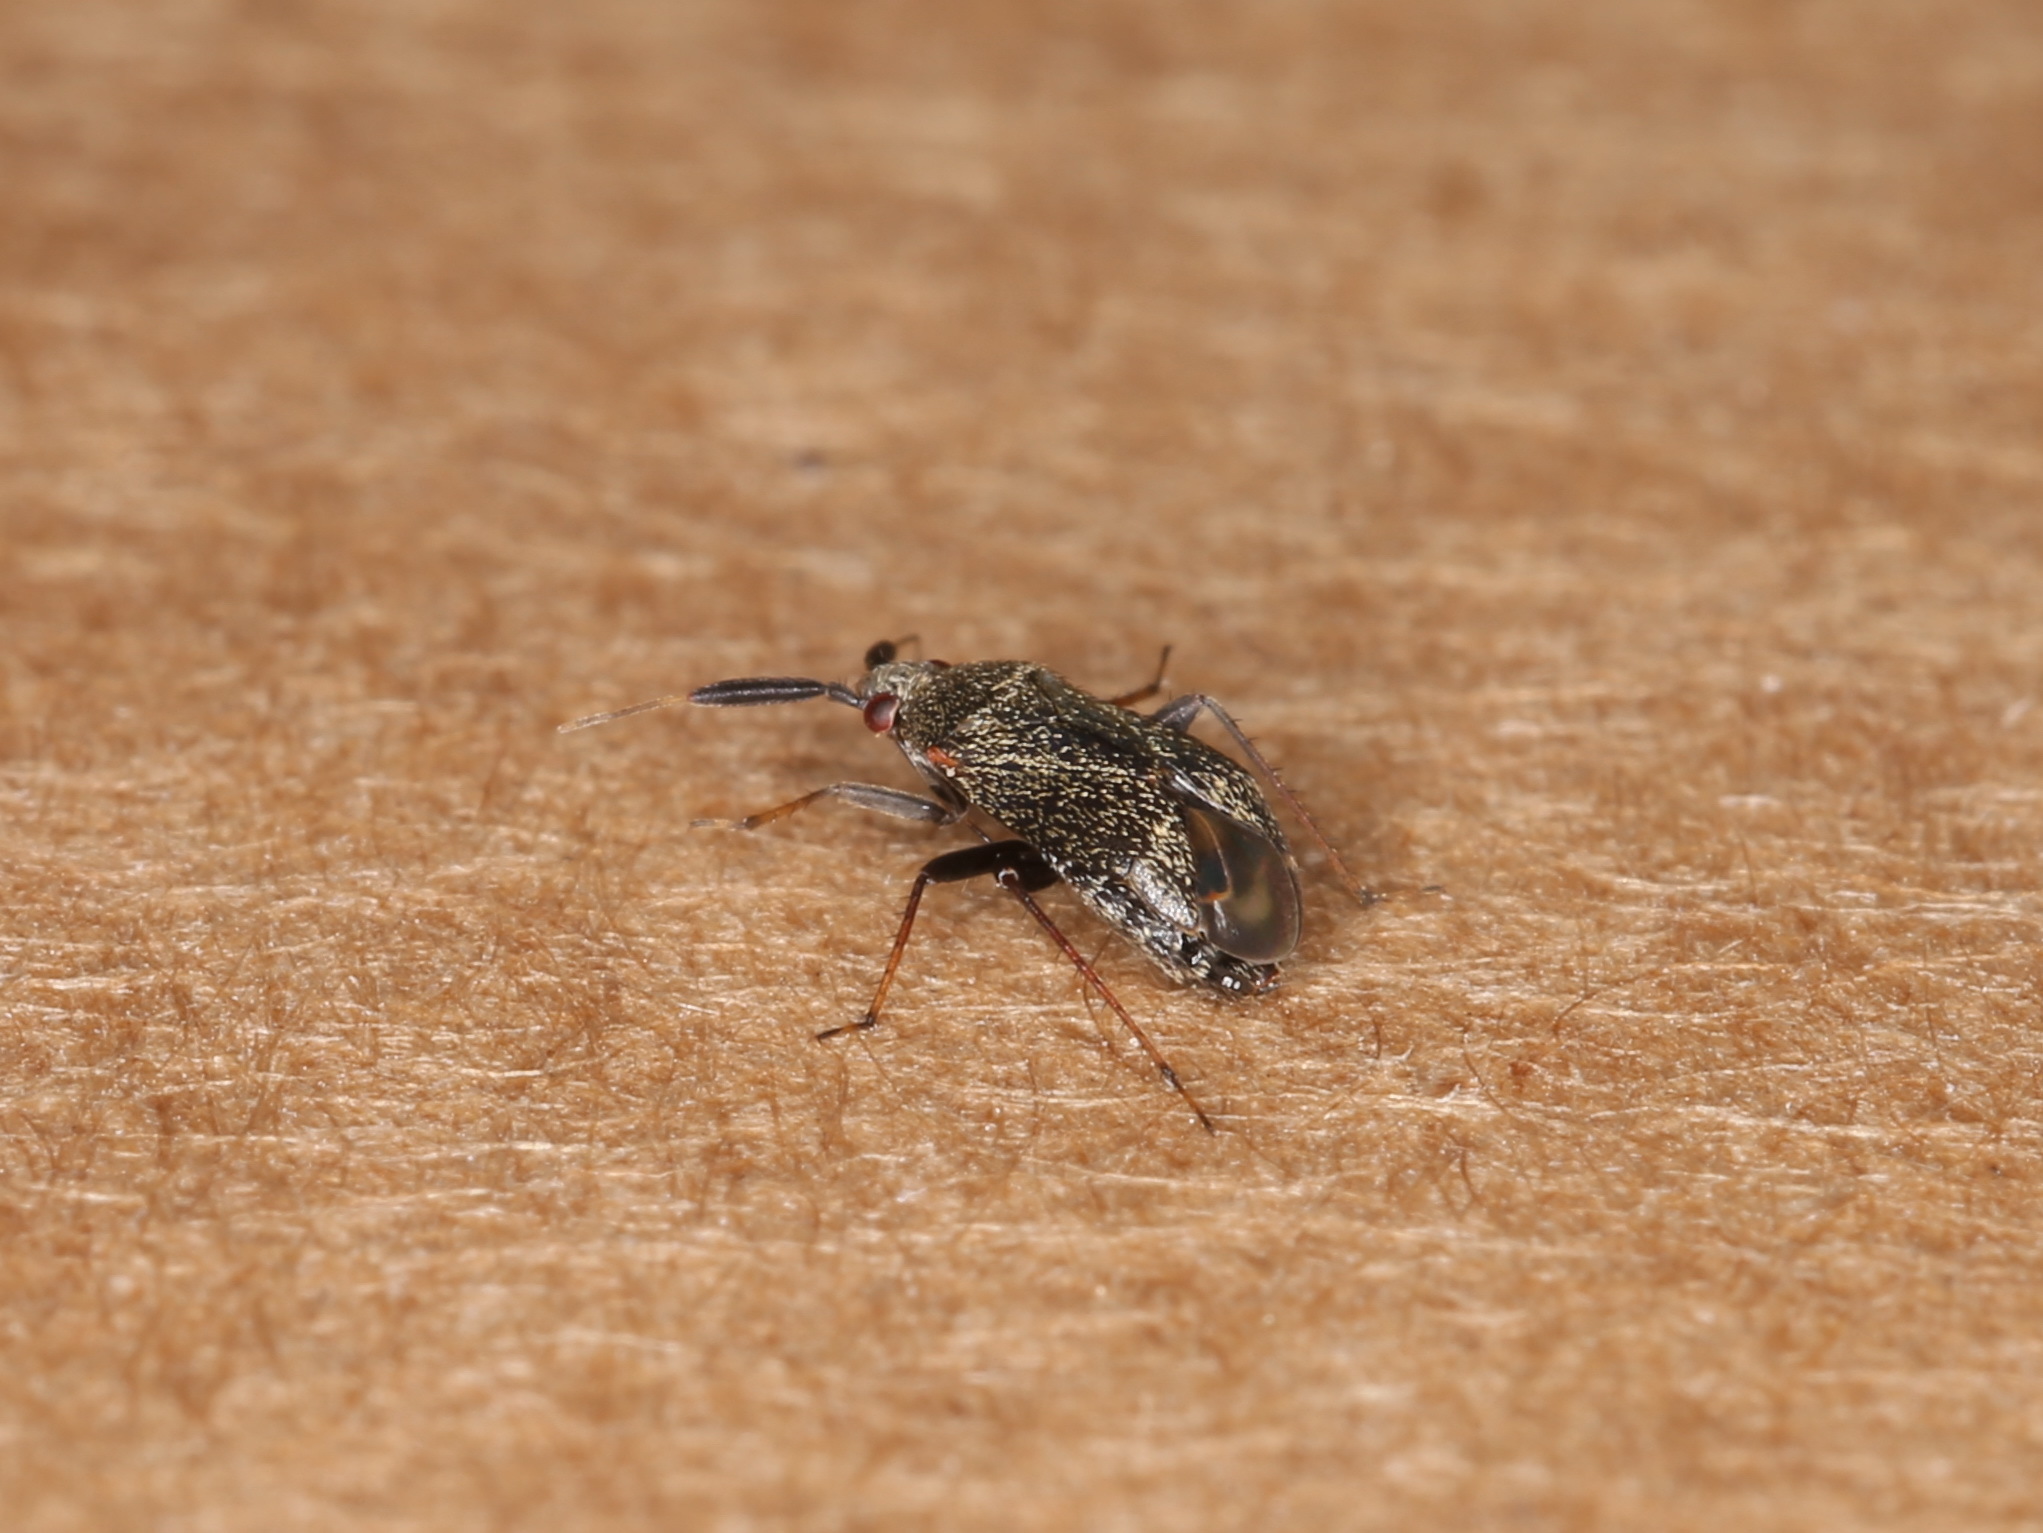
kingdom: Animalia
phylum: Arthropoda
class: Insecta
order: Hemiptera
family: Miridae
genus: Mesopsallus
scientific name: Mesopsallus
